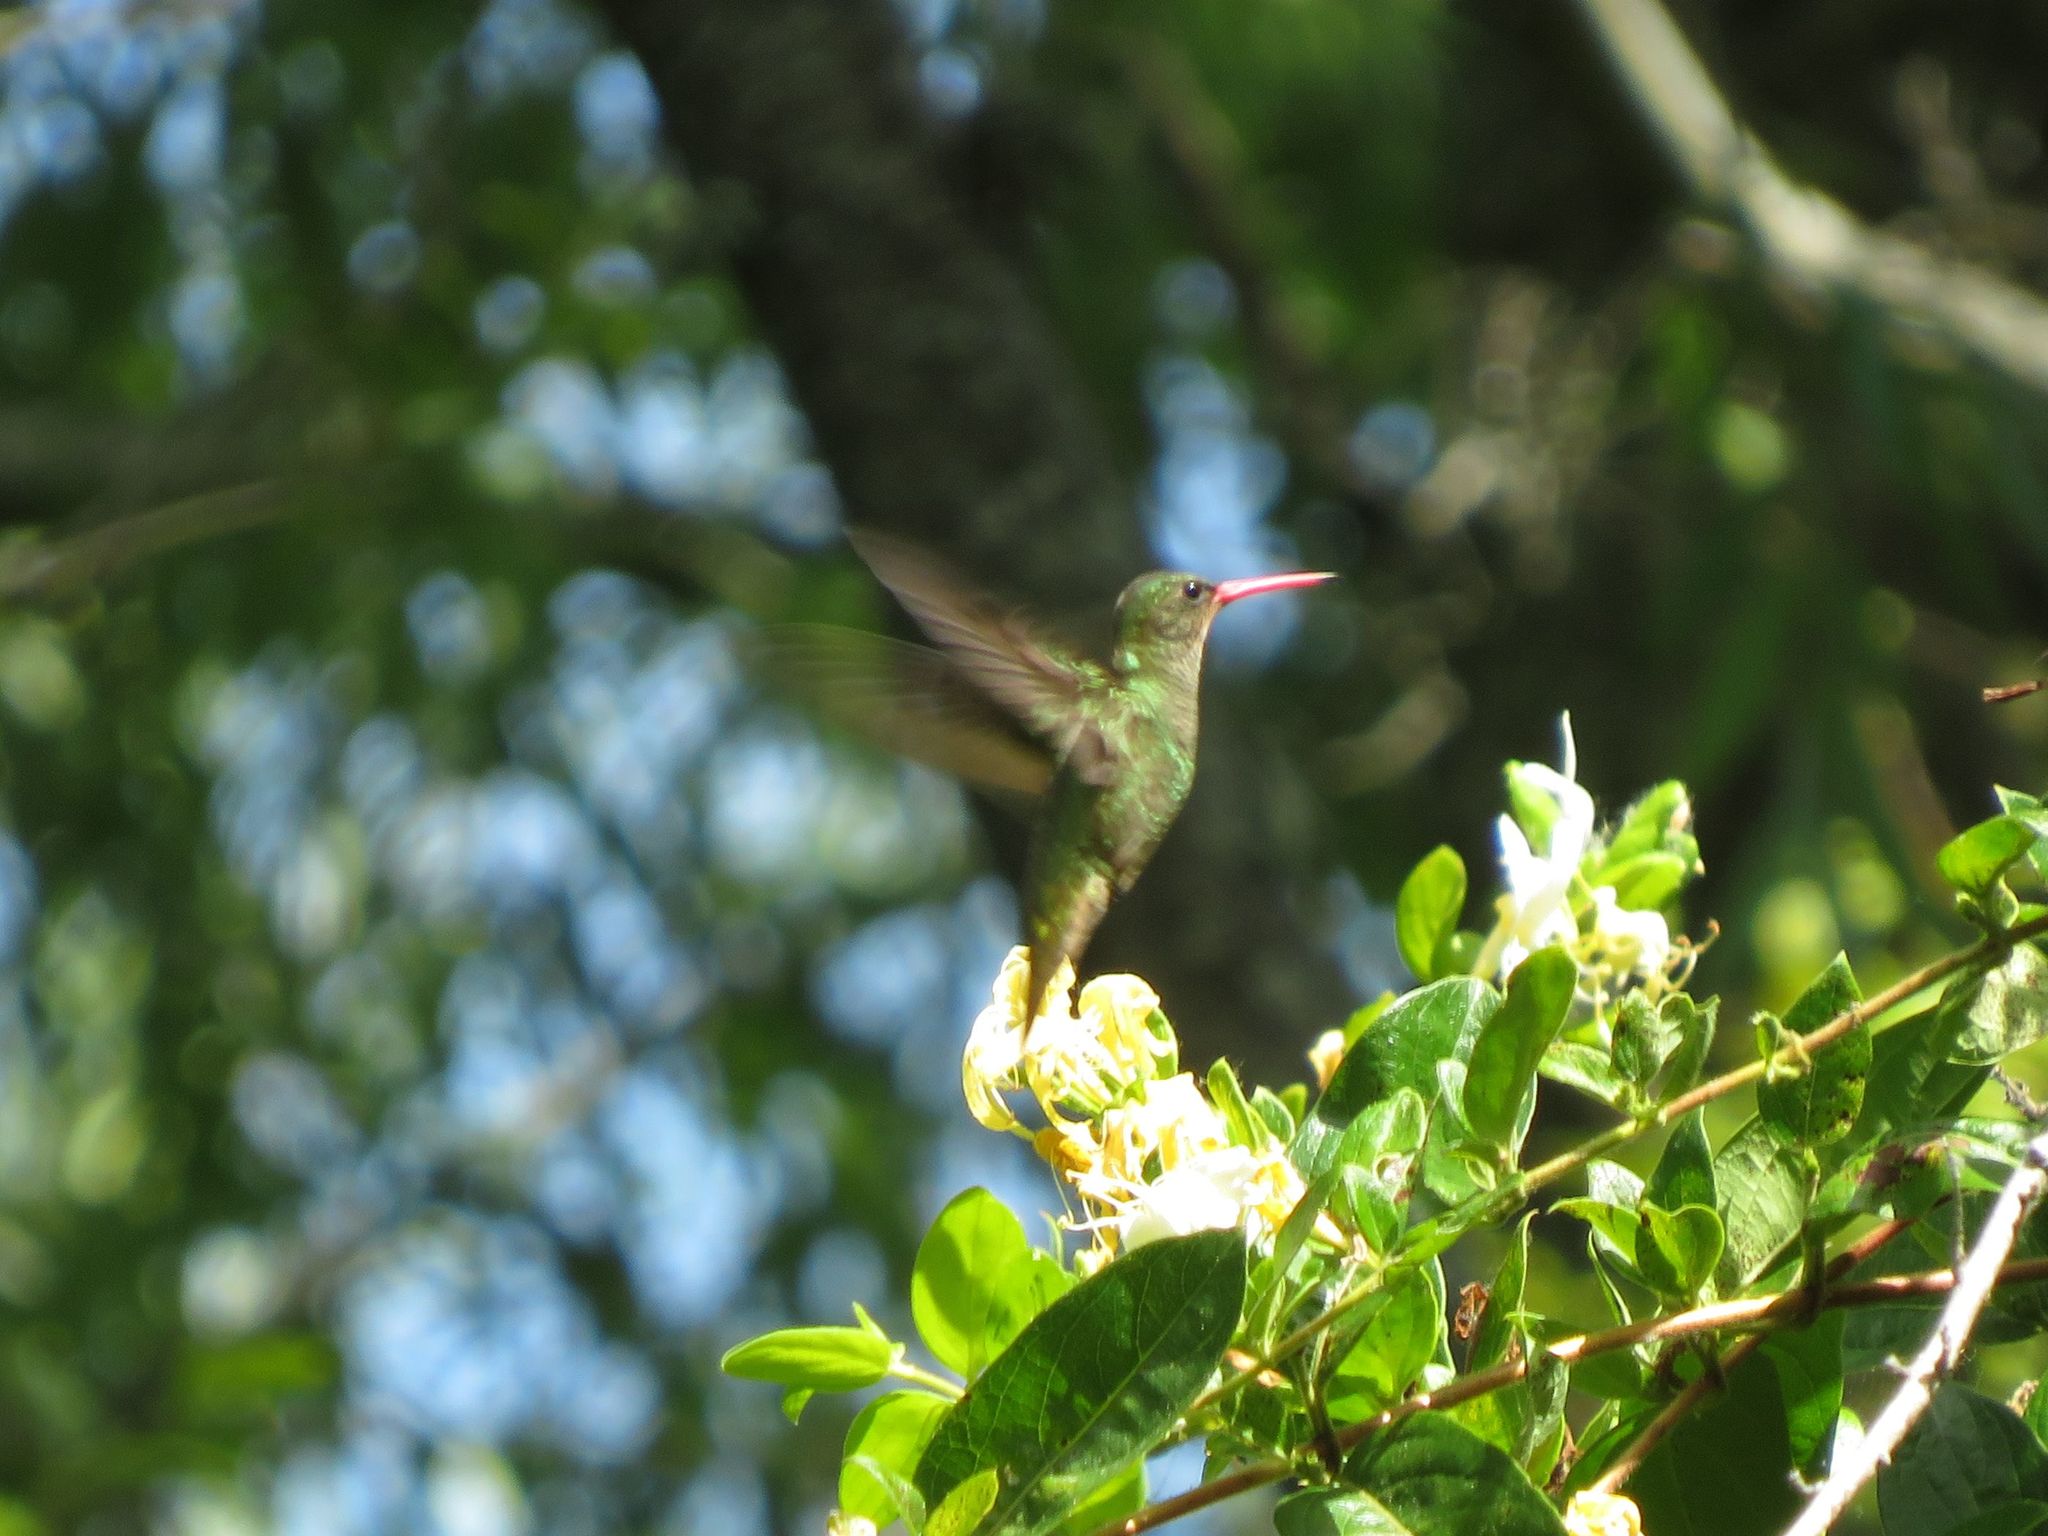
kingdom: Animalia
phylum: Chordata
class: Aves
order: Apodiformes
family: Trochilidae
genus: Hylocharis
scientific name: Hylocharis chrysura
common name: Gilded sapphire
